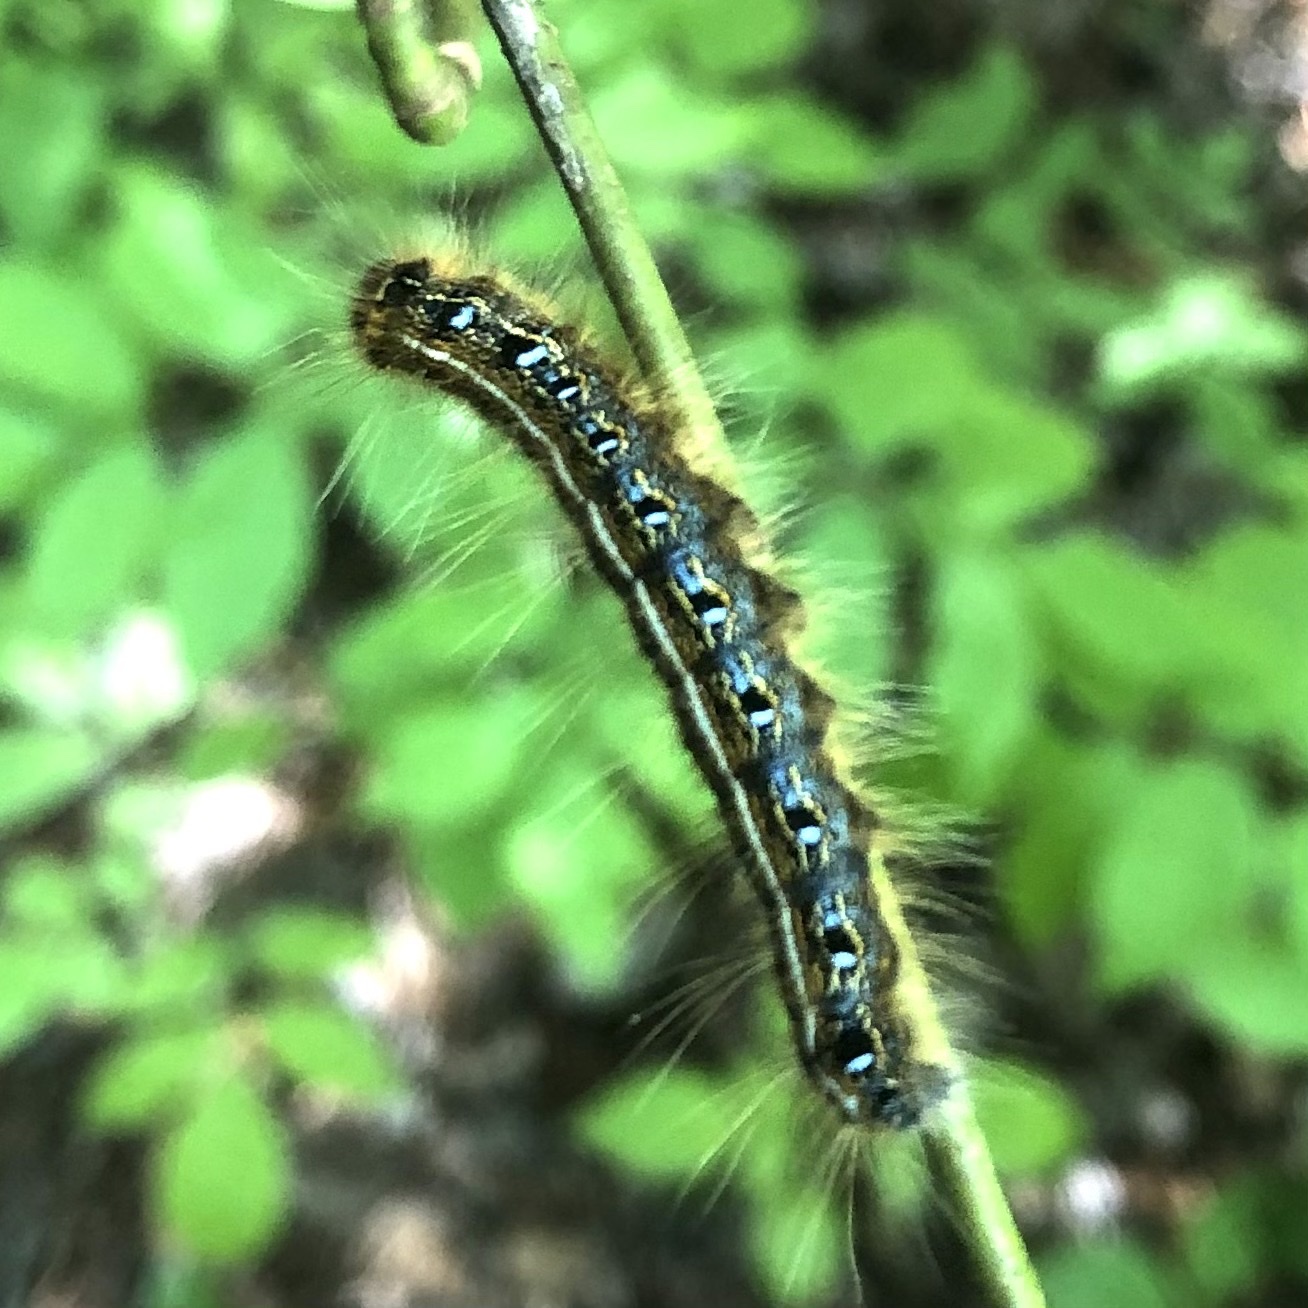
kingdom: Animalia
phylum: Arthropoda
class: Insecta
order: Lepidoptera
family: Lasiocampidae
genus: Malacosoma
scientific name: Malacosoma americana
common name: Eastern tent caterpillar moth
